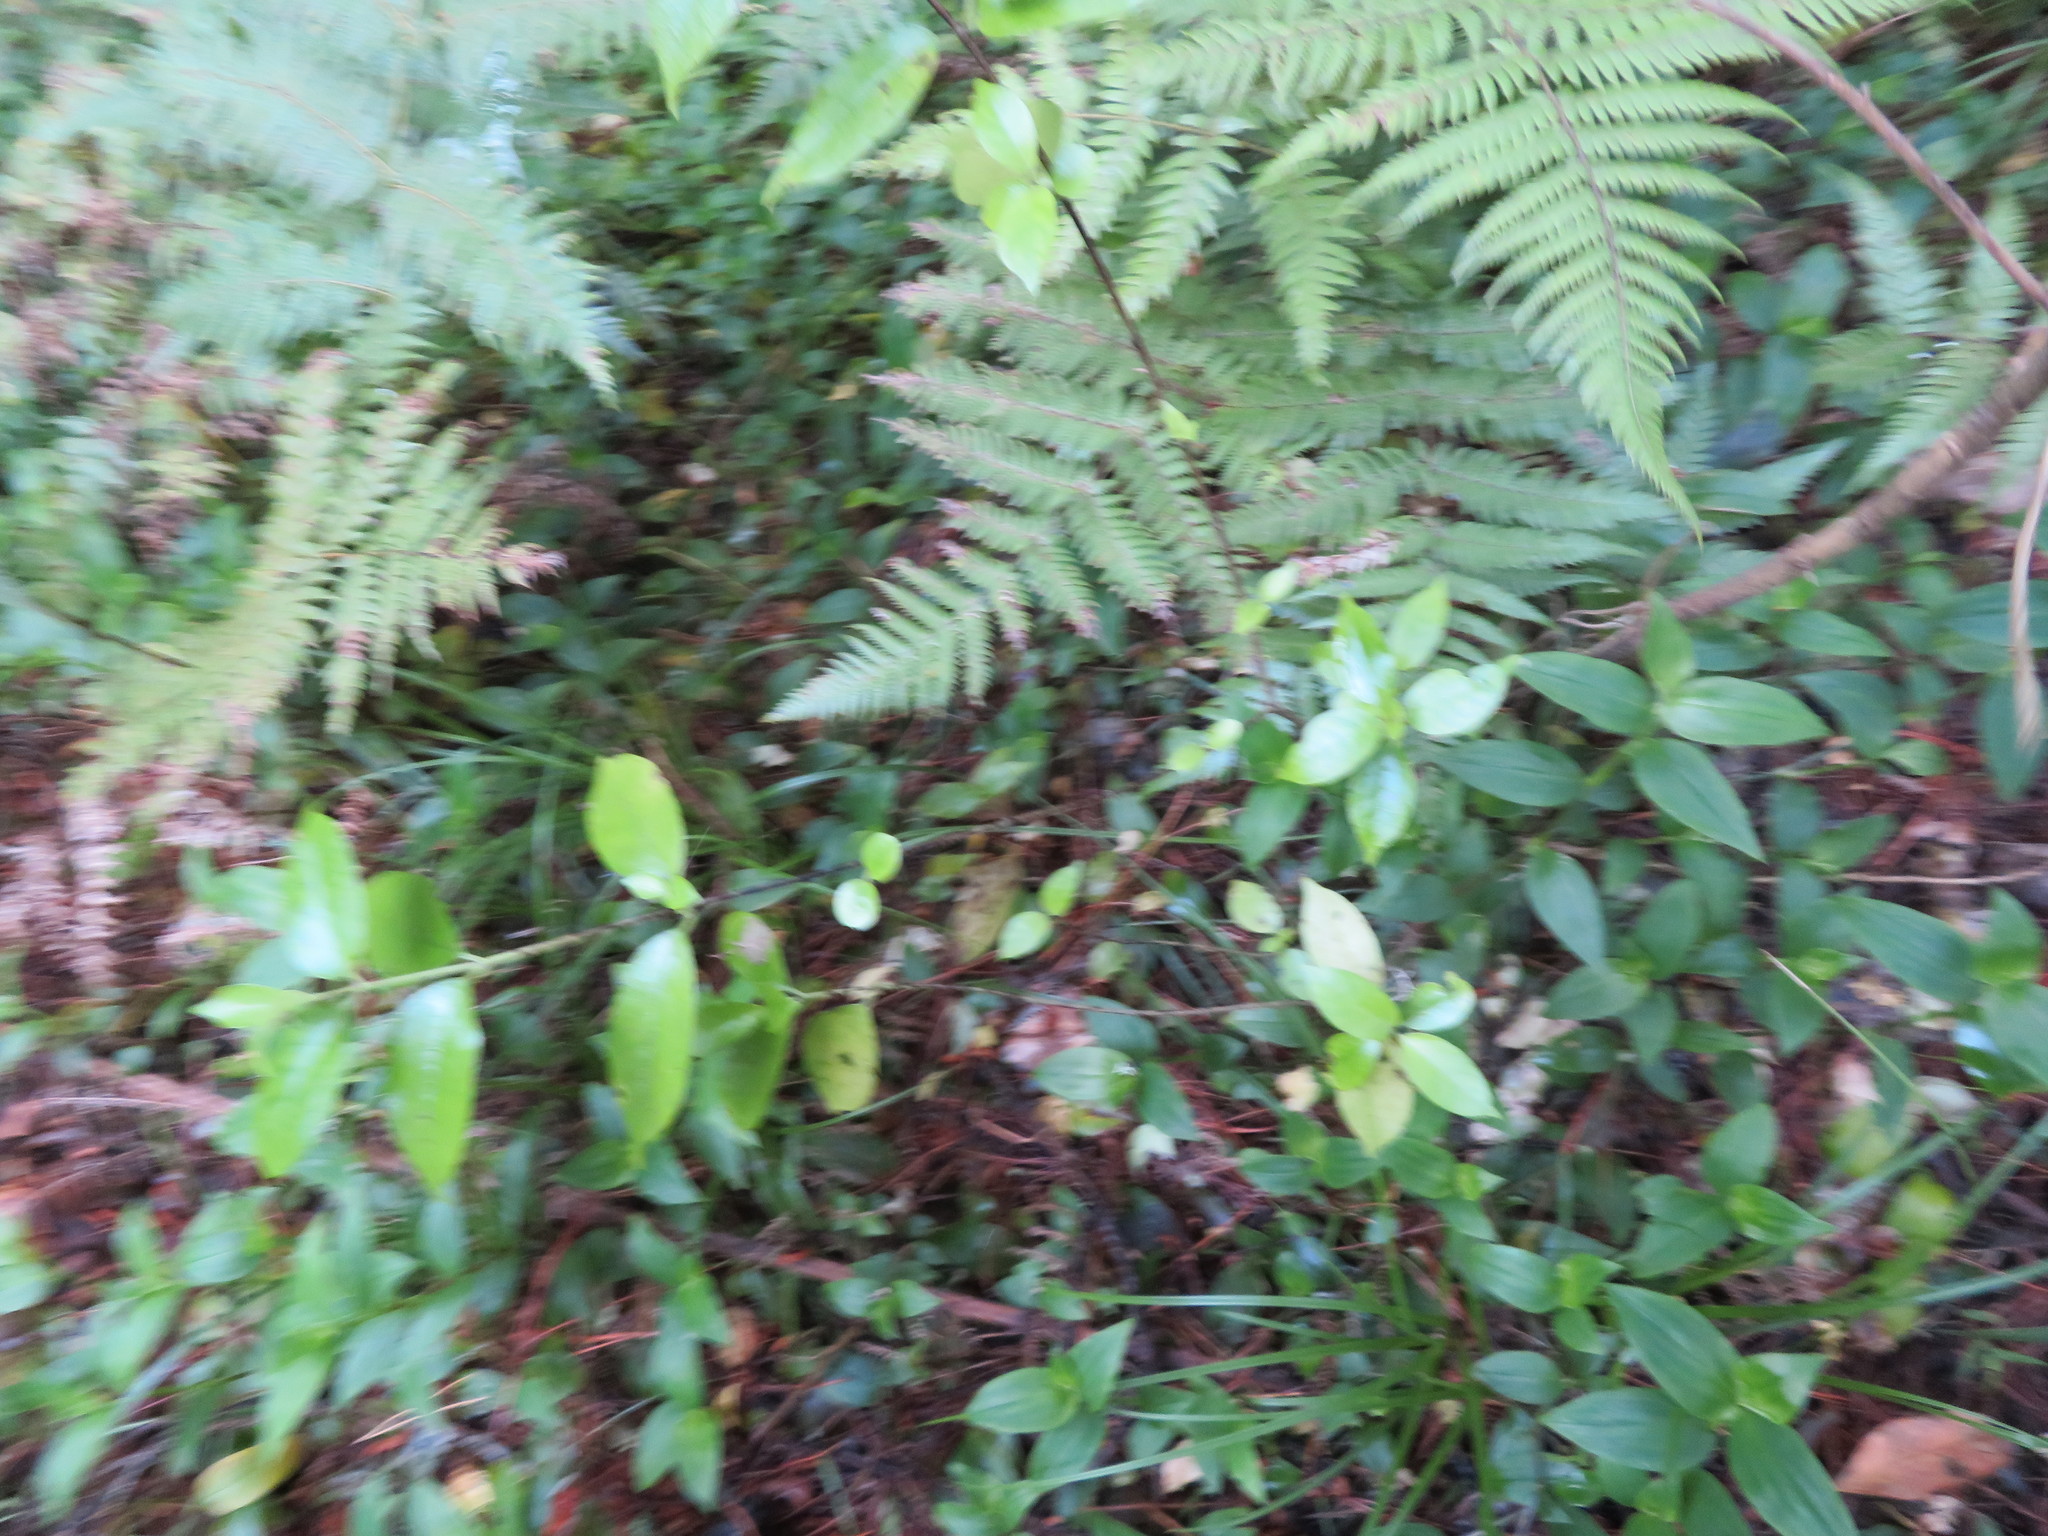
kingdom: Plantae
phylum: Tracheophyta
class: Magnoliopsida
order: Gentianales
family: Loganiaceae
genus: Geniostoma
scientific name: Geniostoma ligustrifolium
